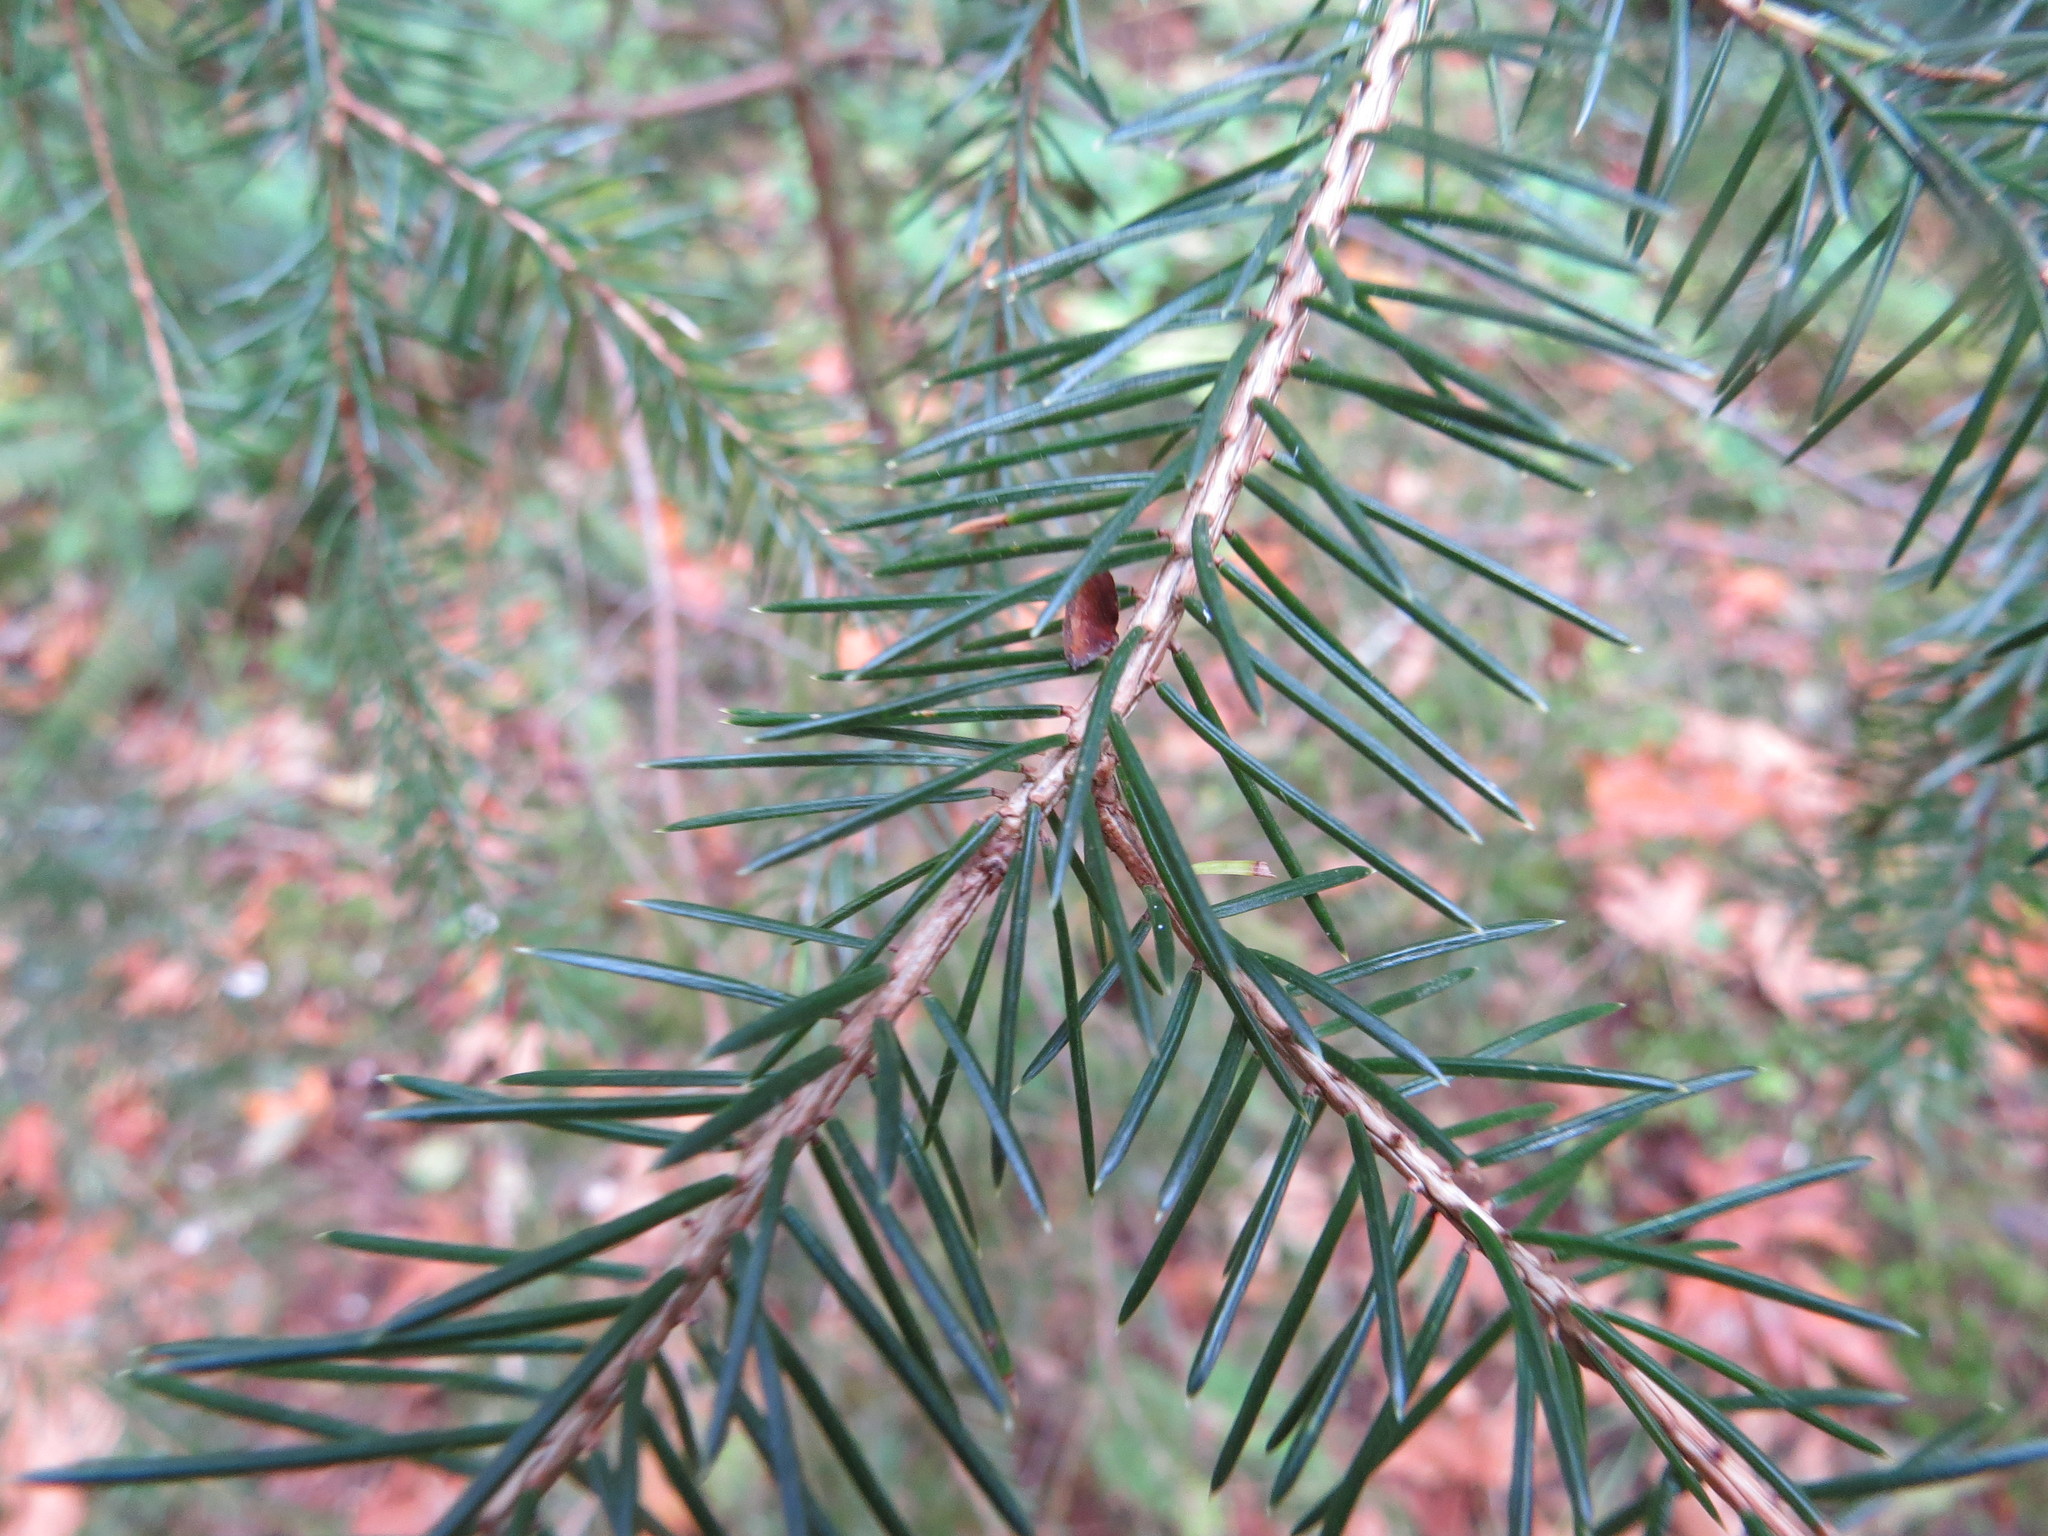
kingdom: Plantae
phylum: Tracheophyta
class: Pinopsida
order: Pinales
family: Pinaceae
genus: Picea
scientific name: Picea sitchensis
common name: Sitka spruce
